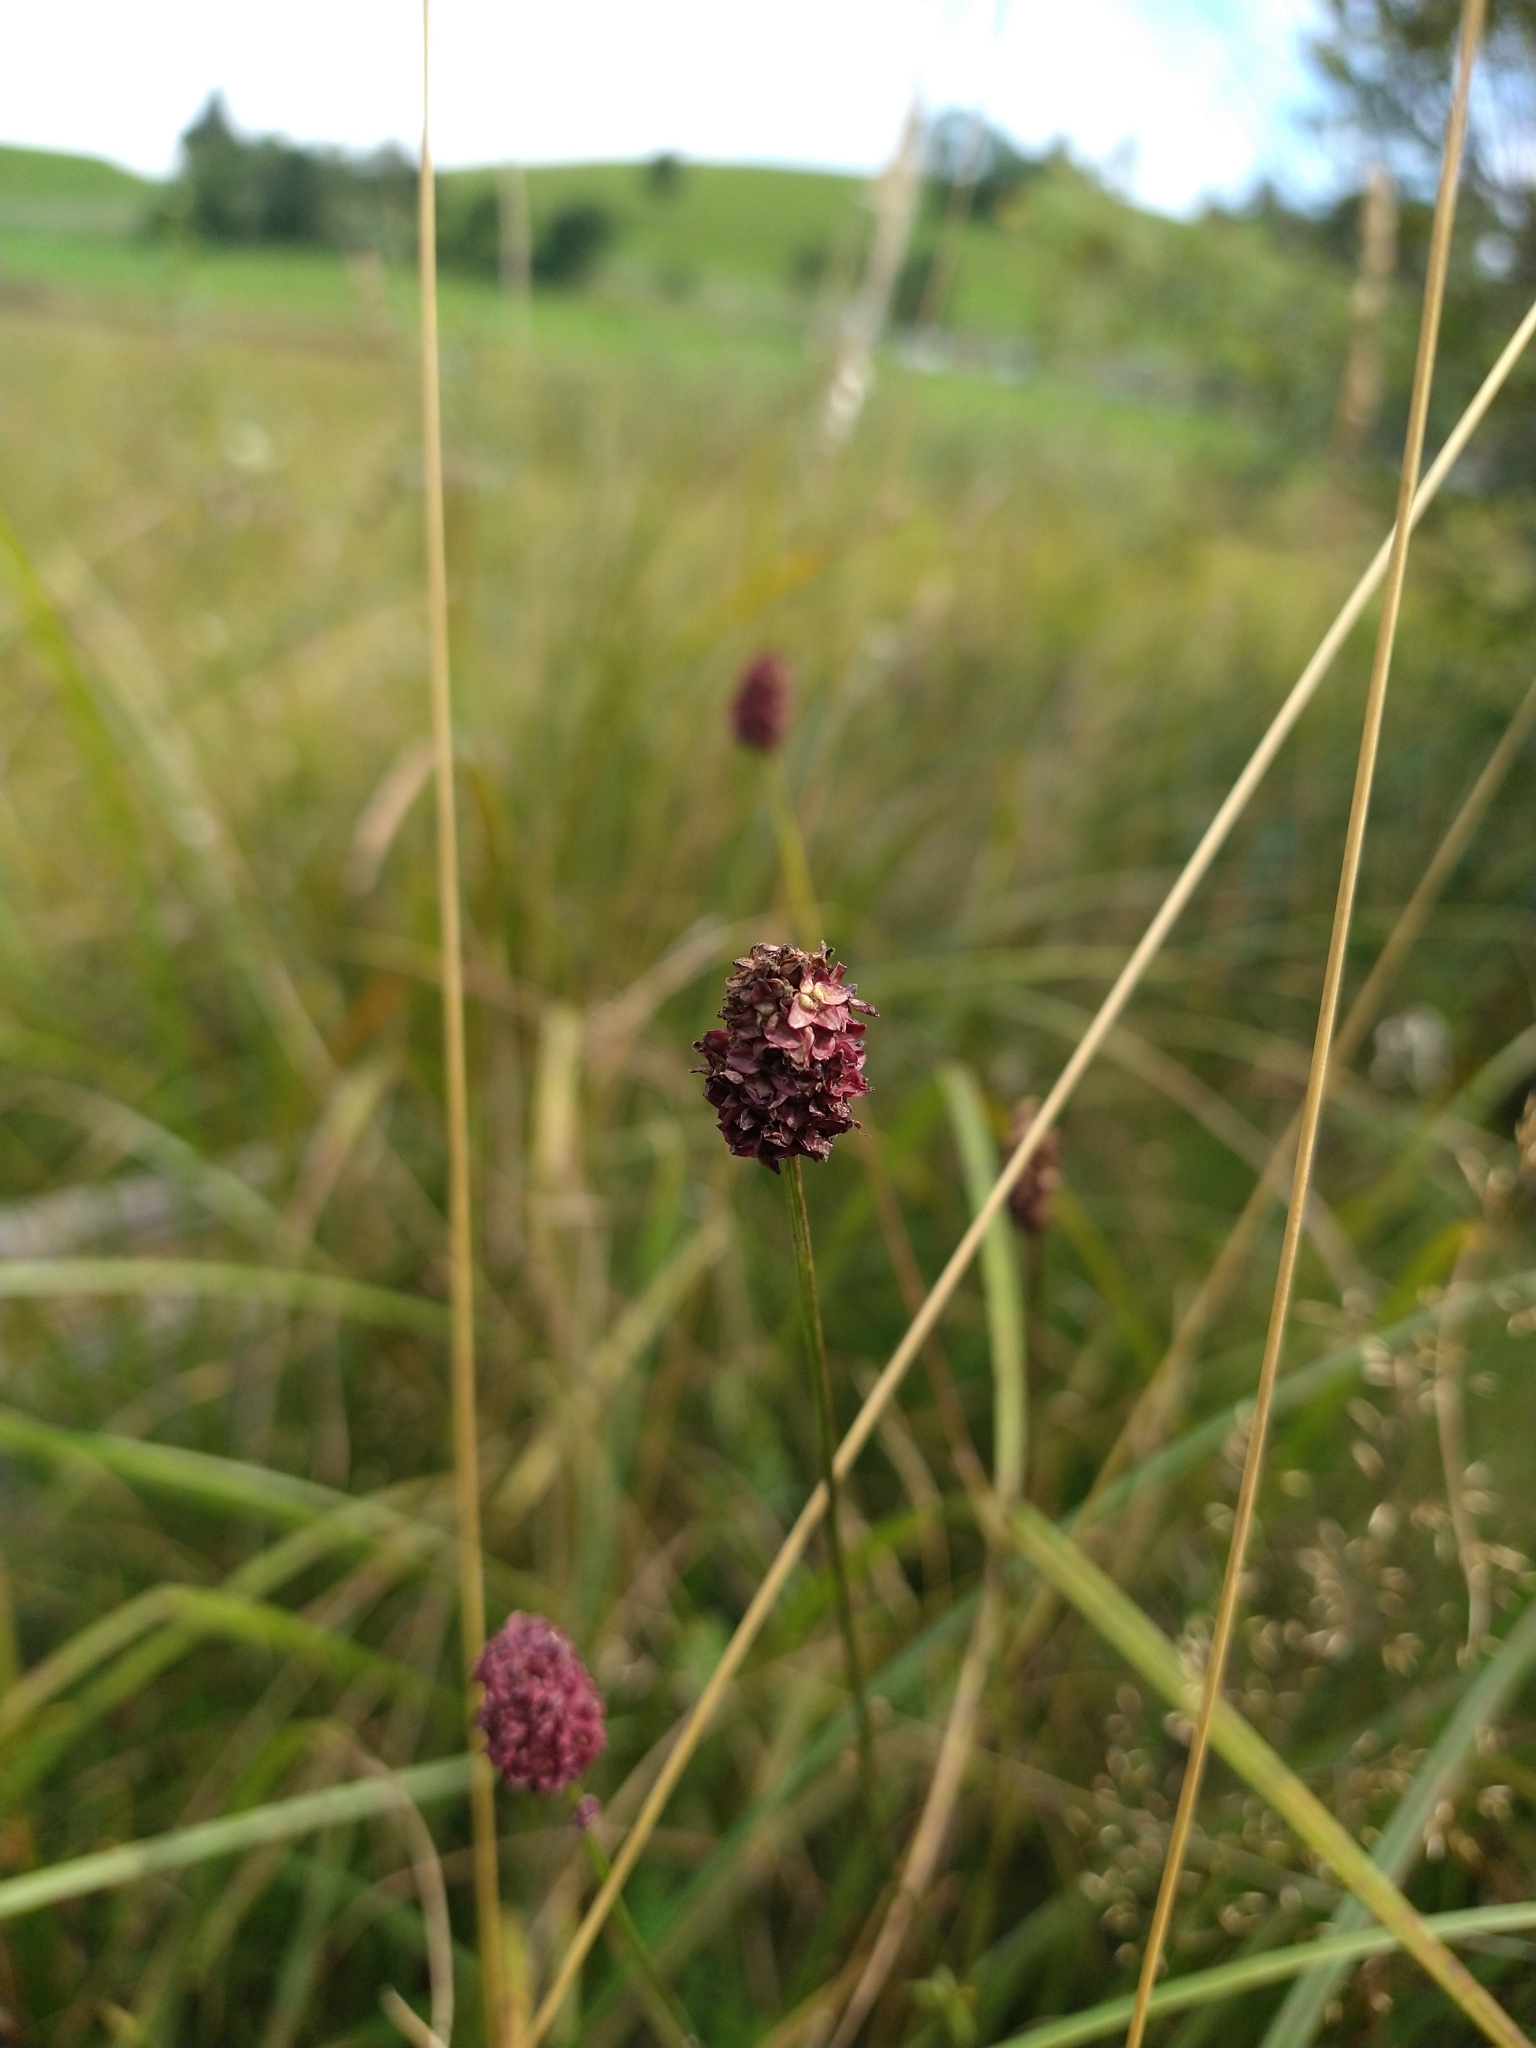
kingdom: Plantae
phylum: Tracheophyta
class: Magnoliopsida
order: Rosales
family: Rosaceae
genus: Sanguisorba
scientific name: Sanguisorba officinalis
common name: Great burnet
